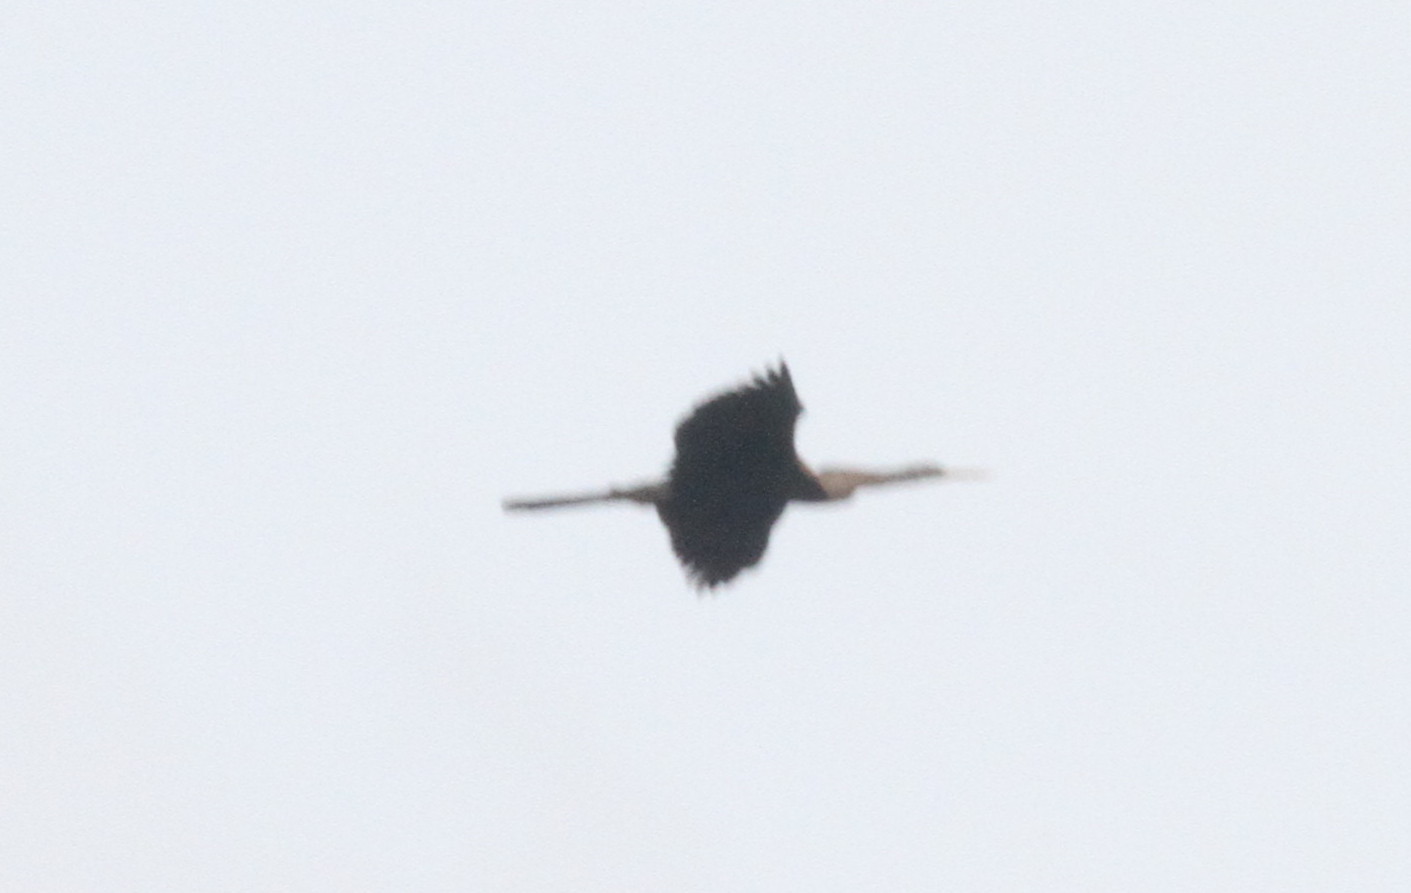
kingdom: Animalia
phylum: Chordata
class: Aves
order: Suliformes
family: Anhingidae
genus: Anhinga
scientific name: Anhinga melanogaster
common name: Oriental darter
